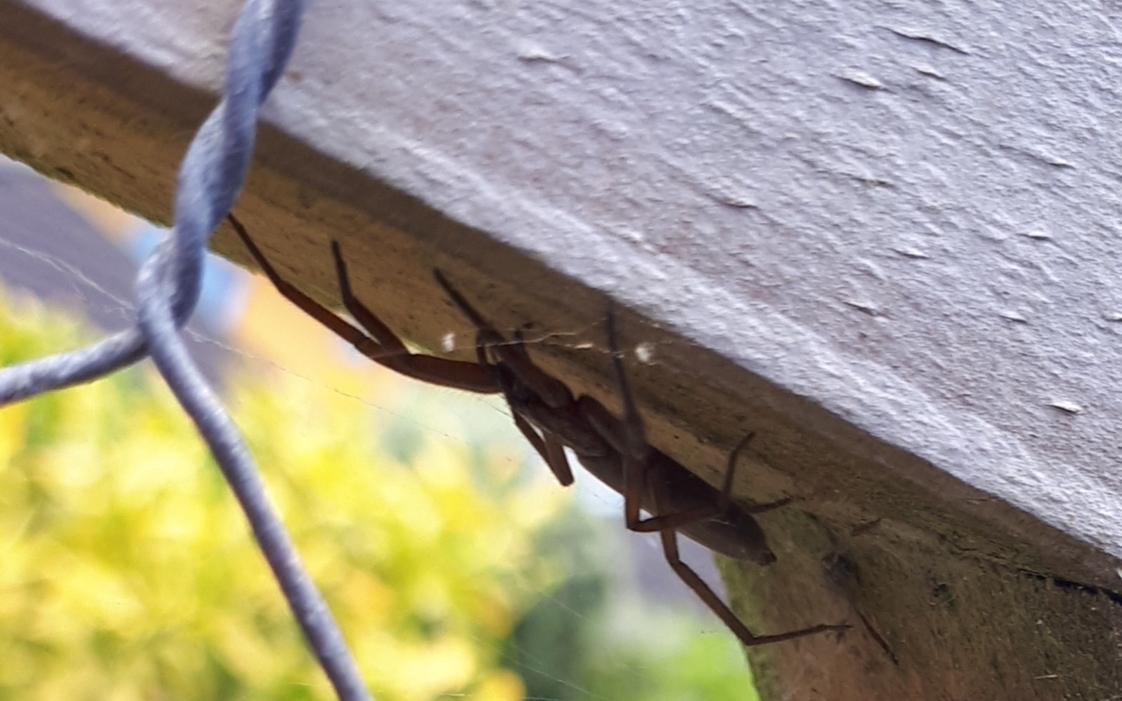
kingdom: Animalia
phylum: Arthropoda
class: Arachnida
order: Araneae
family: Trochanteriidae
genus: Hemicloea
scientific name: Hemicloea rogenhoferi
